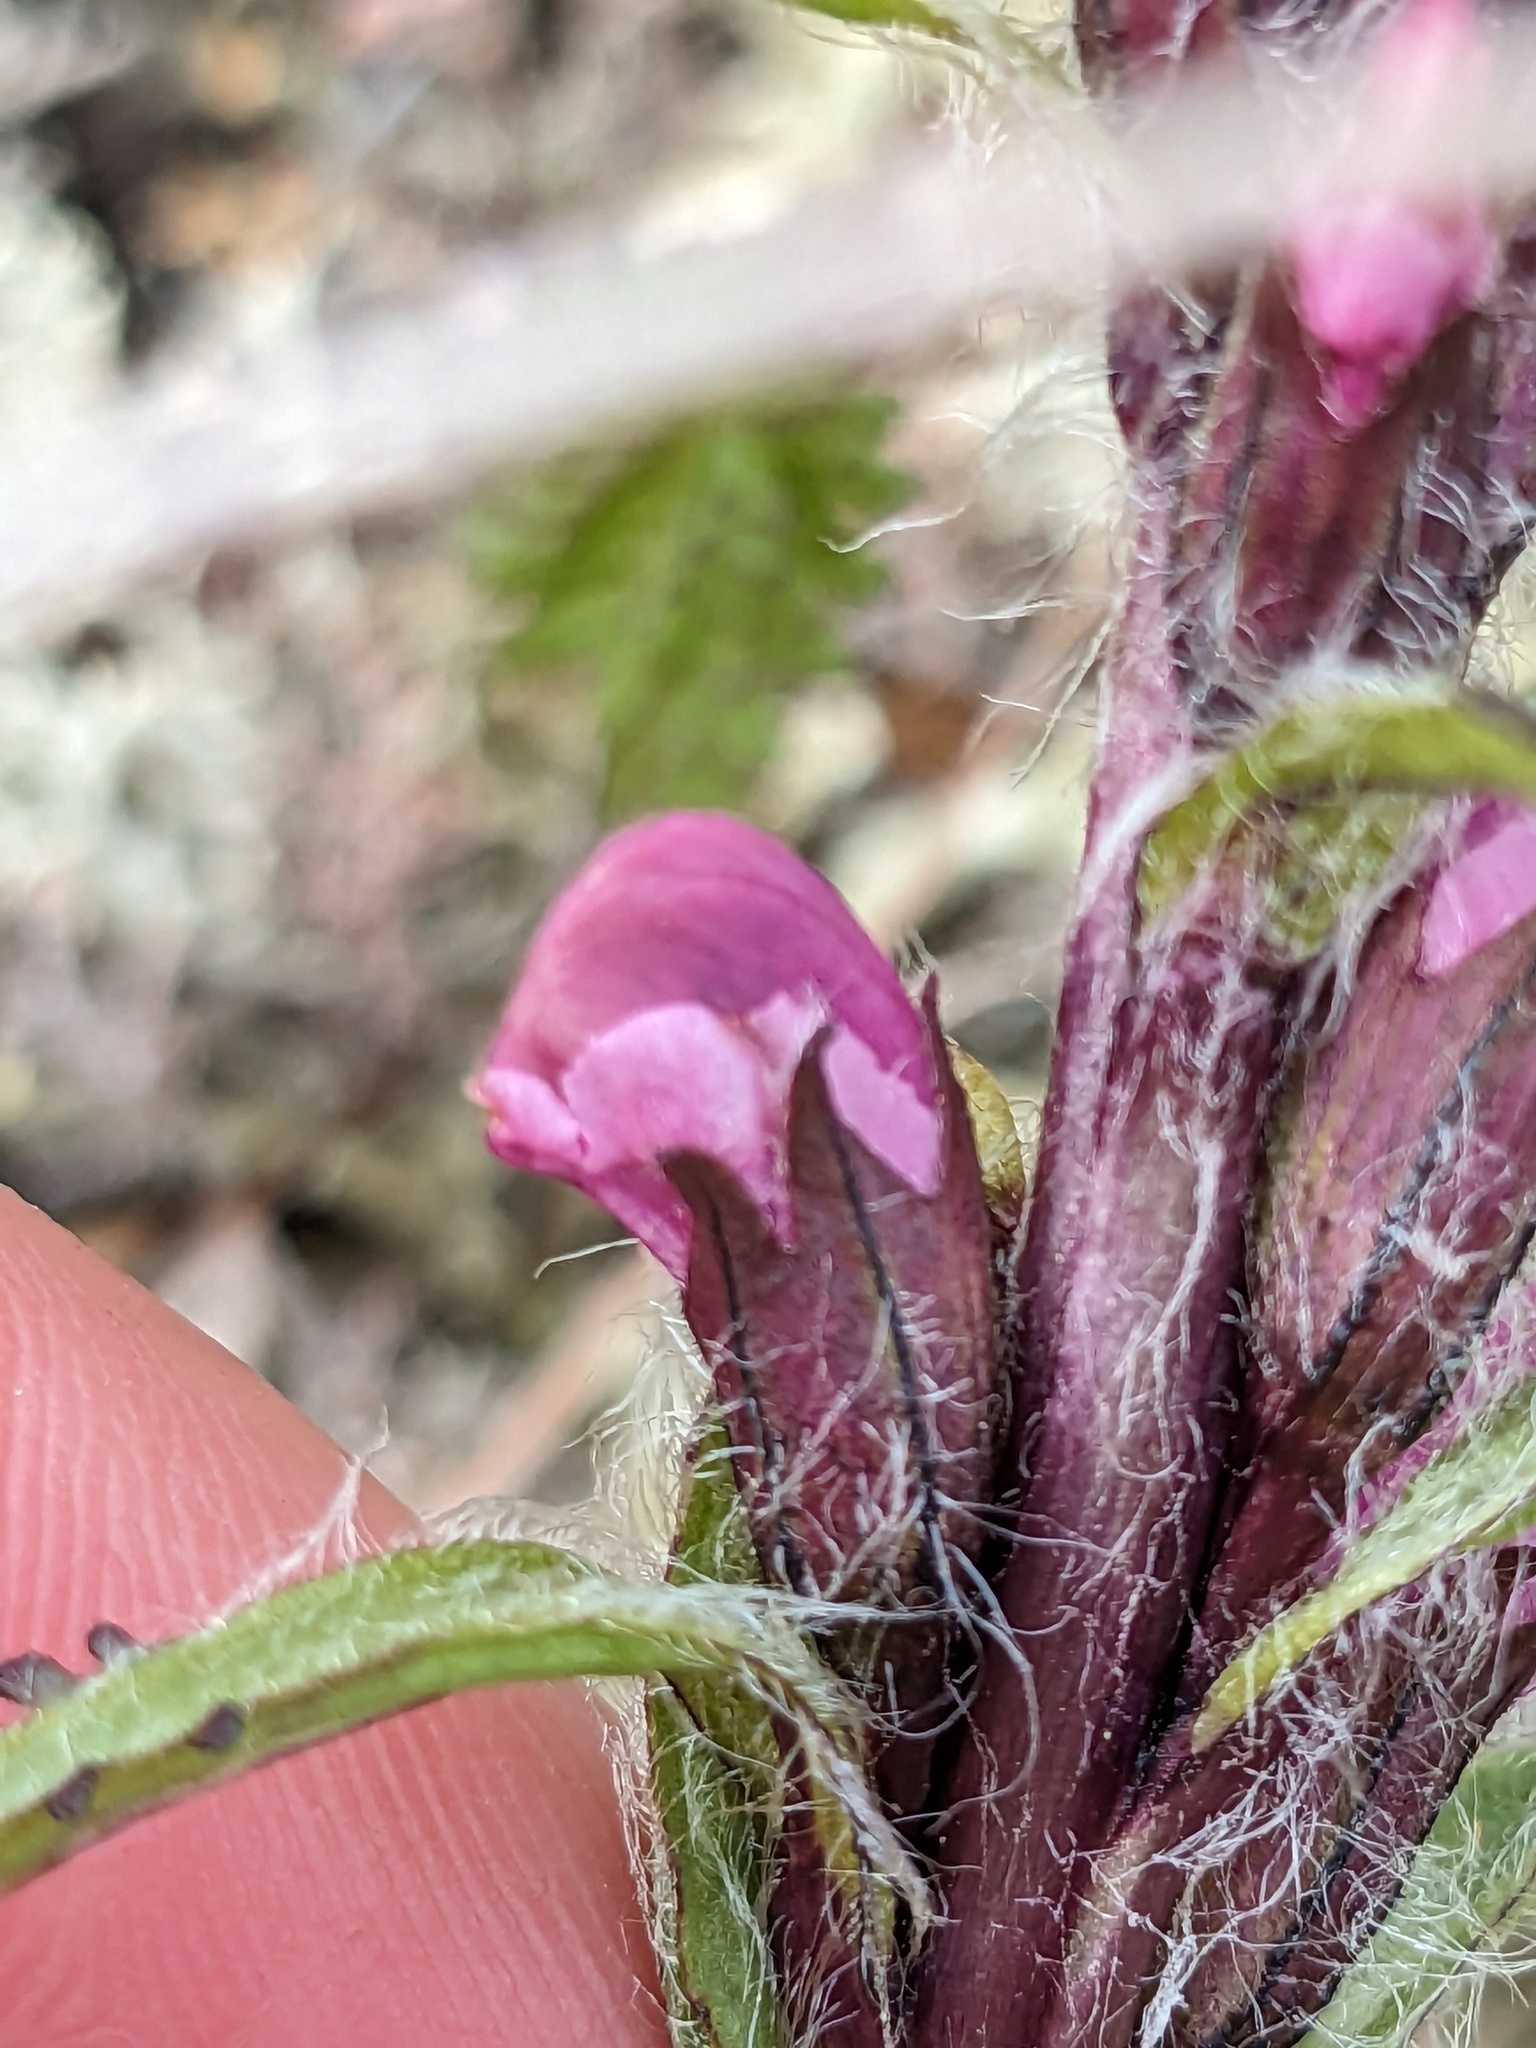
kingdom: Plantae
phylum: Tracheophyta
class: Magnoliopsida
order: Lamiales
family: Orobanchaceae
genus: Pedicularis
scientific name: Pedicularis langsdorffii
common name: Langsdorff's lousewort
